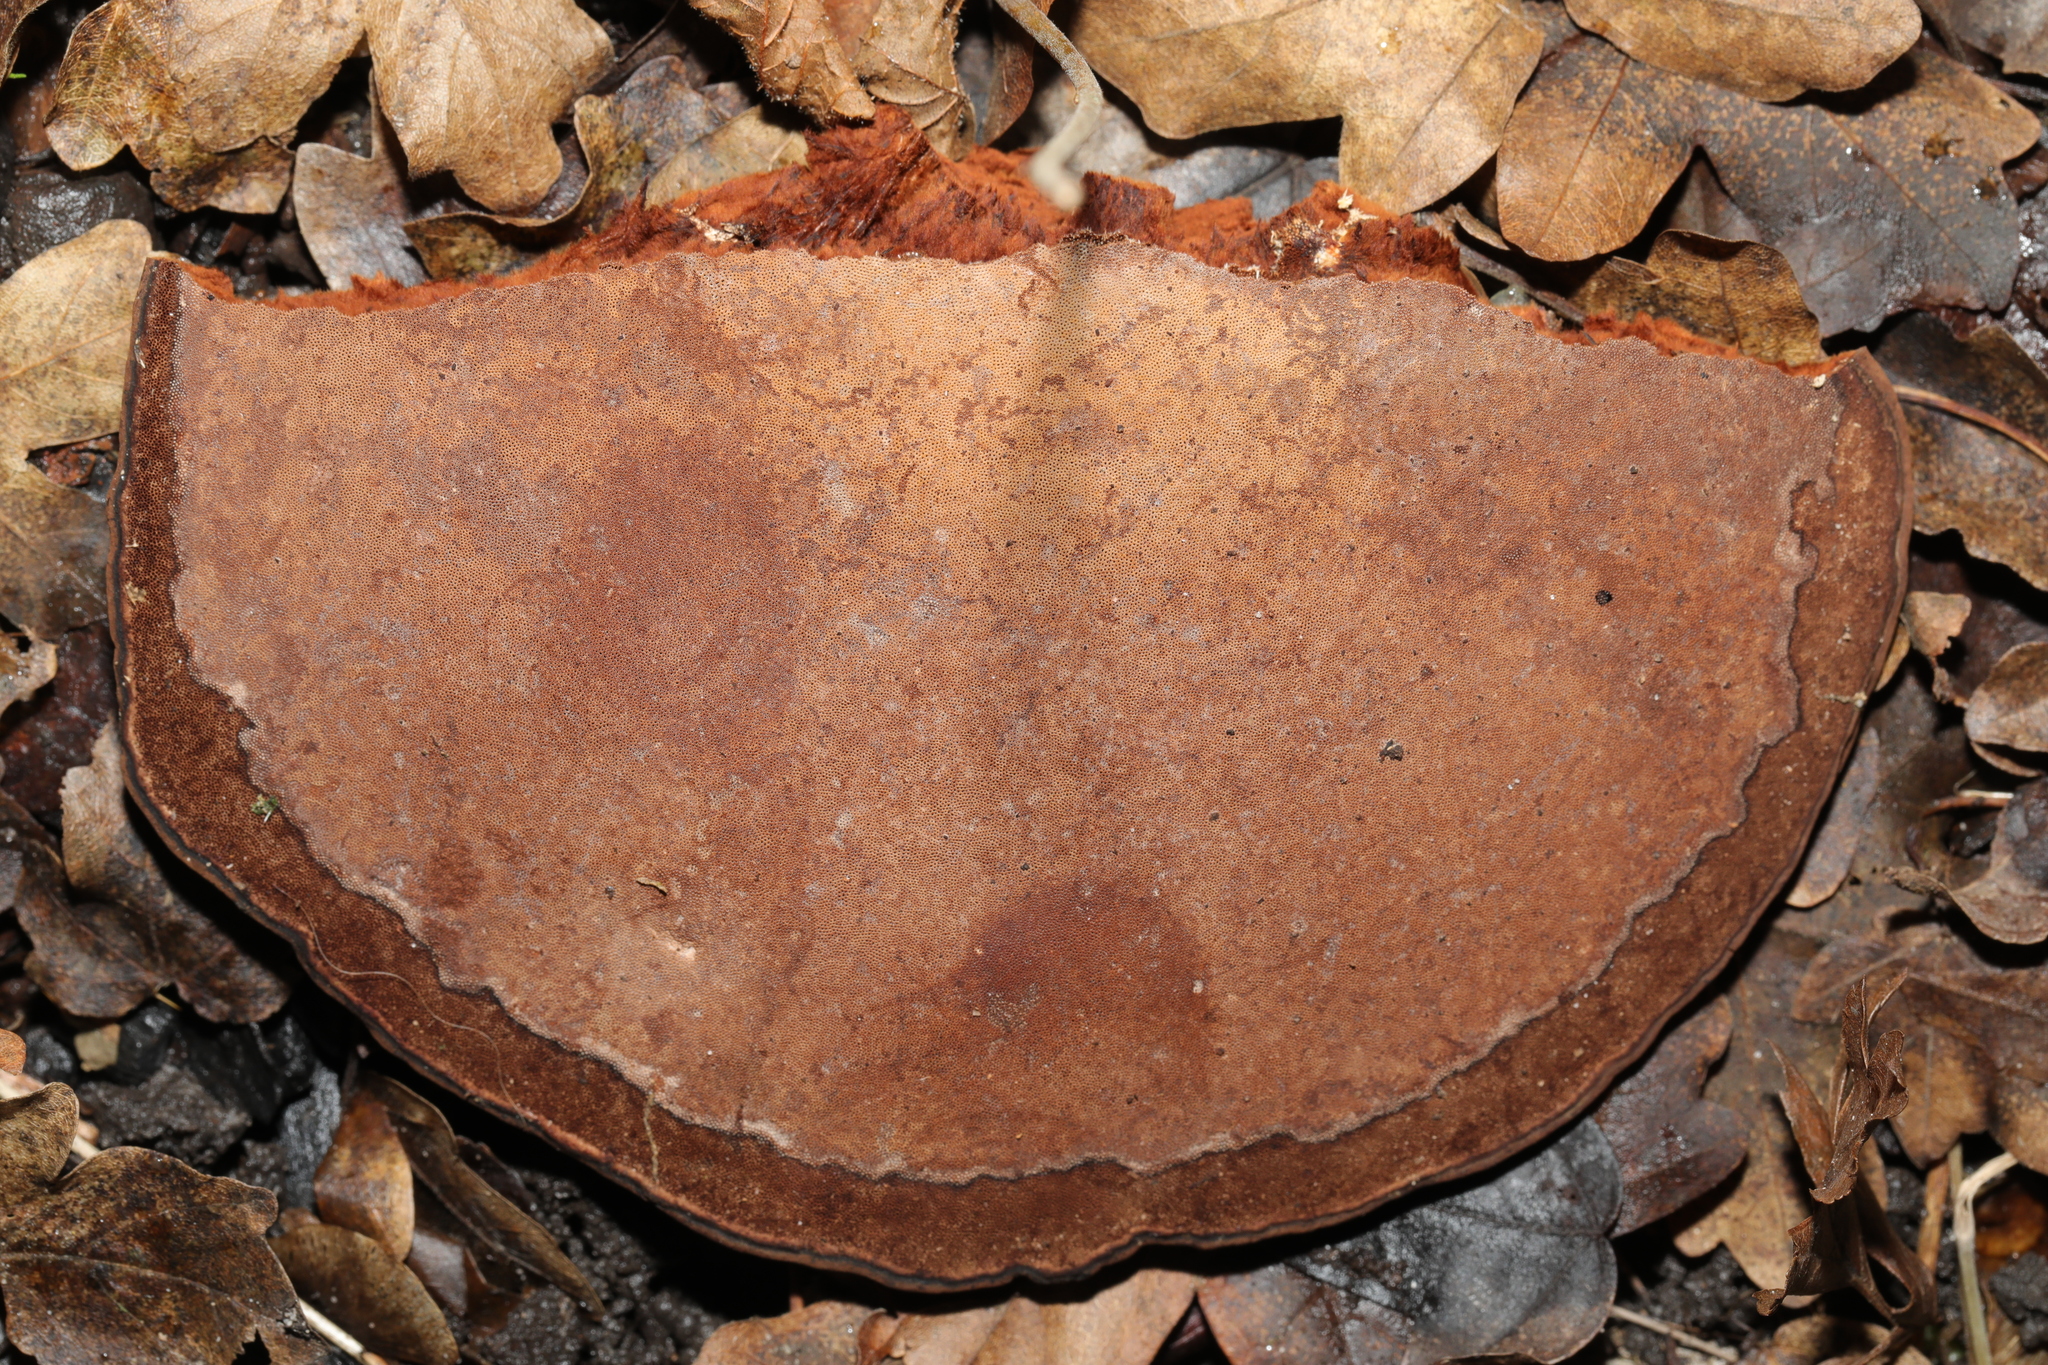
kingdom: Fungi
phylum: Basidiomycota
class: Agaricomycetes
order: Polyporales
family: Polyporaceae
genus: Ganoderma
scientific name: Ganoderma
